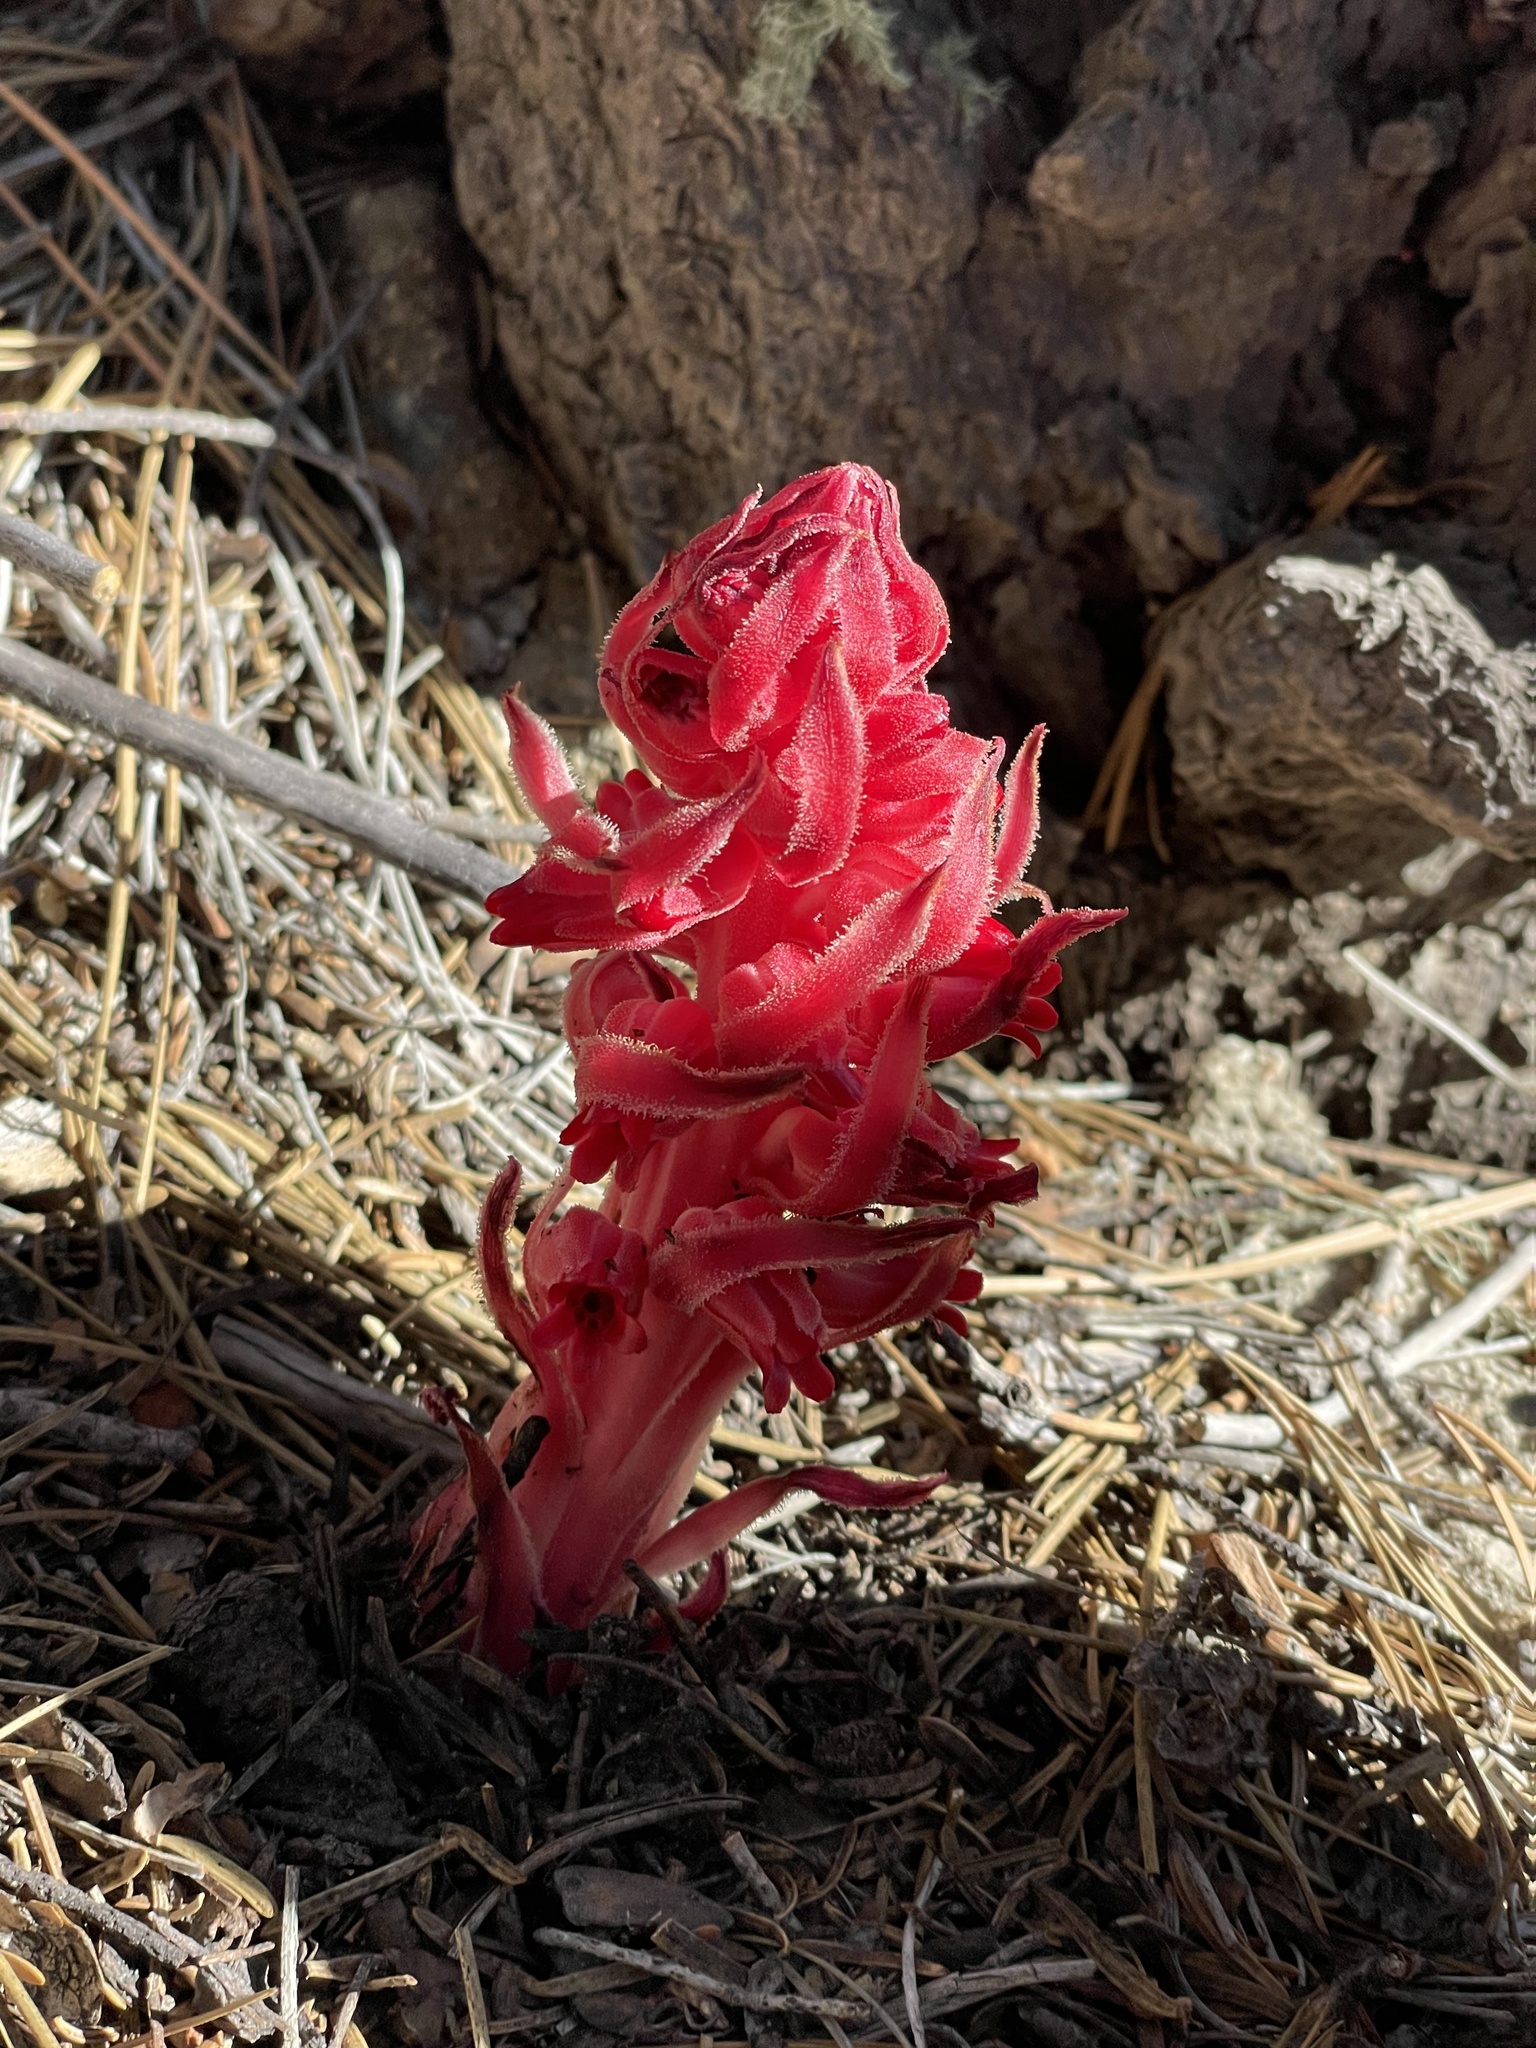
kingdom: Plantae
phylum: Tracheophyta
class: Magnoliopsida
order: Ericales
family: Ericaceae
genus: Sarcodes
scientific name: Sarcodes sanguinea
